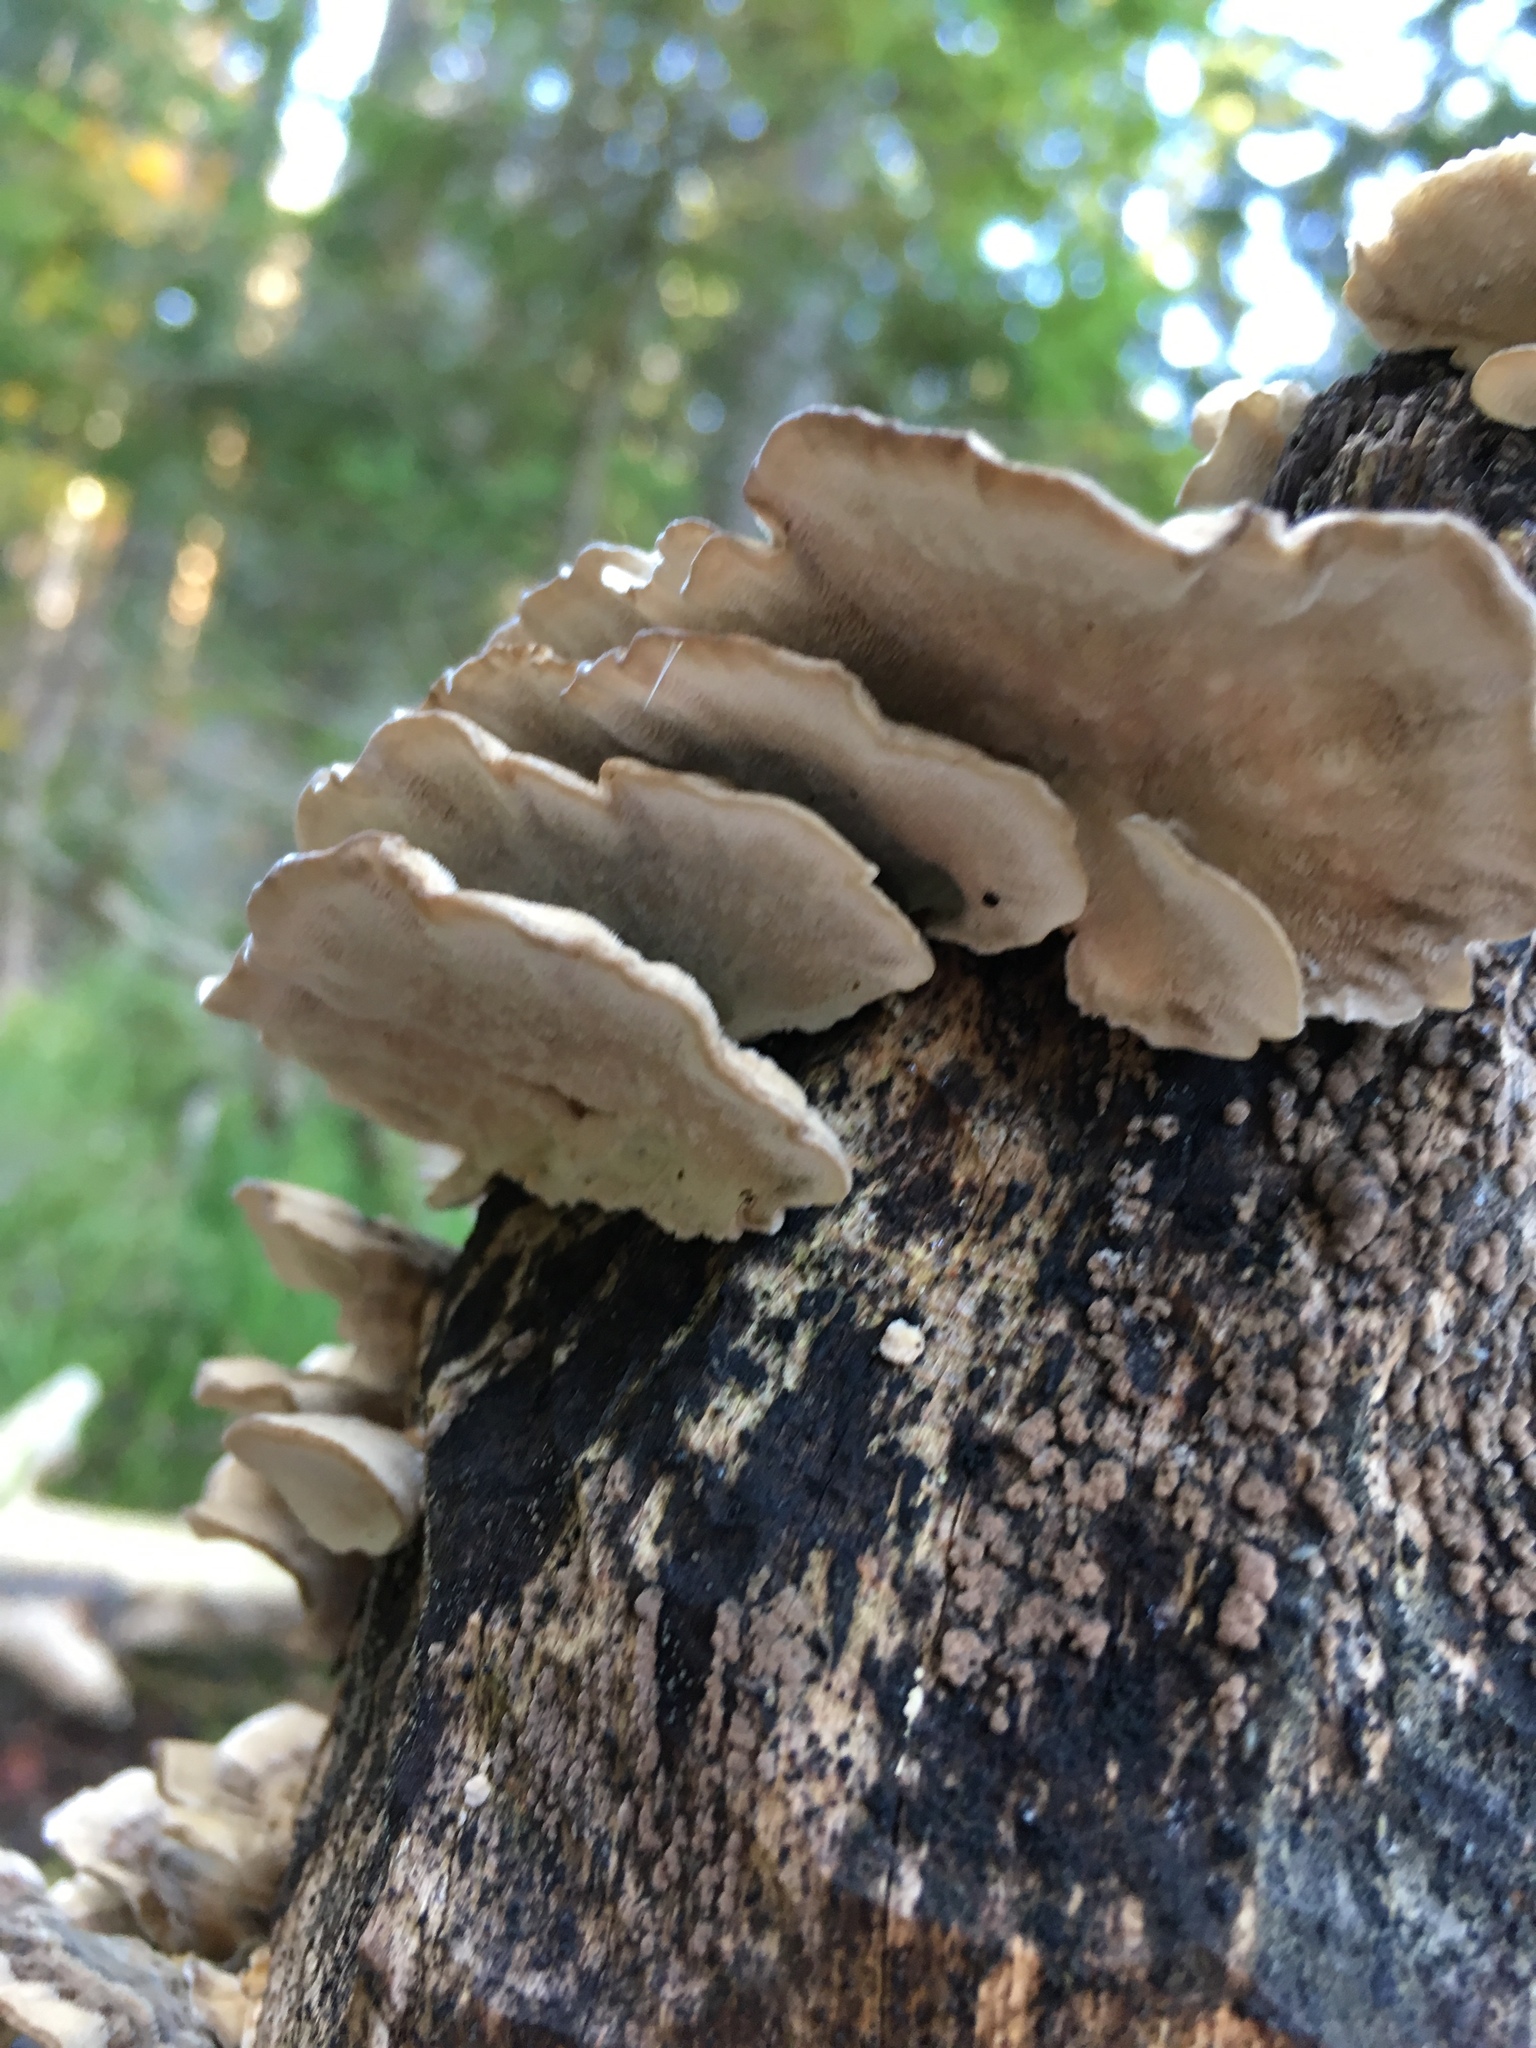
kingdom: Fungi
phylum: Basidiomycota
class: Agaricomycetes
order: Polyporales
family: Polyporaceae
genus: Trametes
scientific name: Trametes versicolor
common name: Turkeytail
